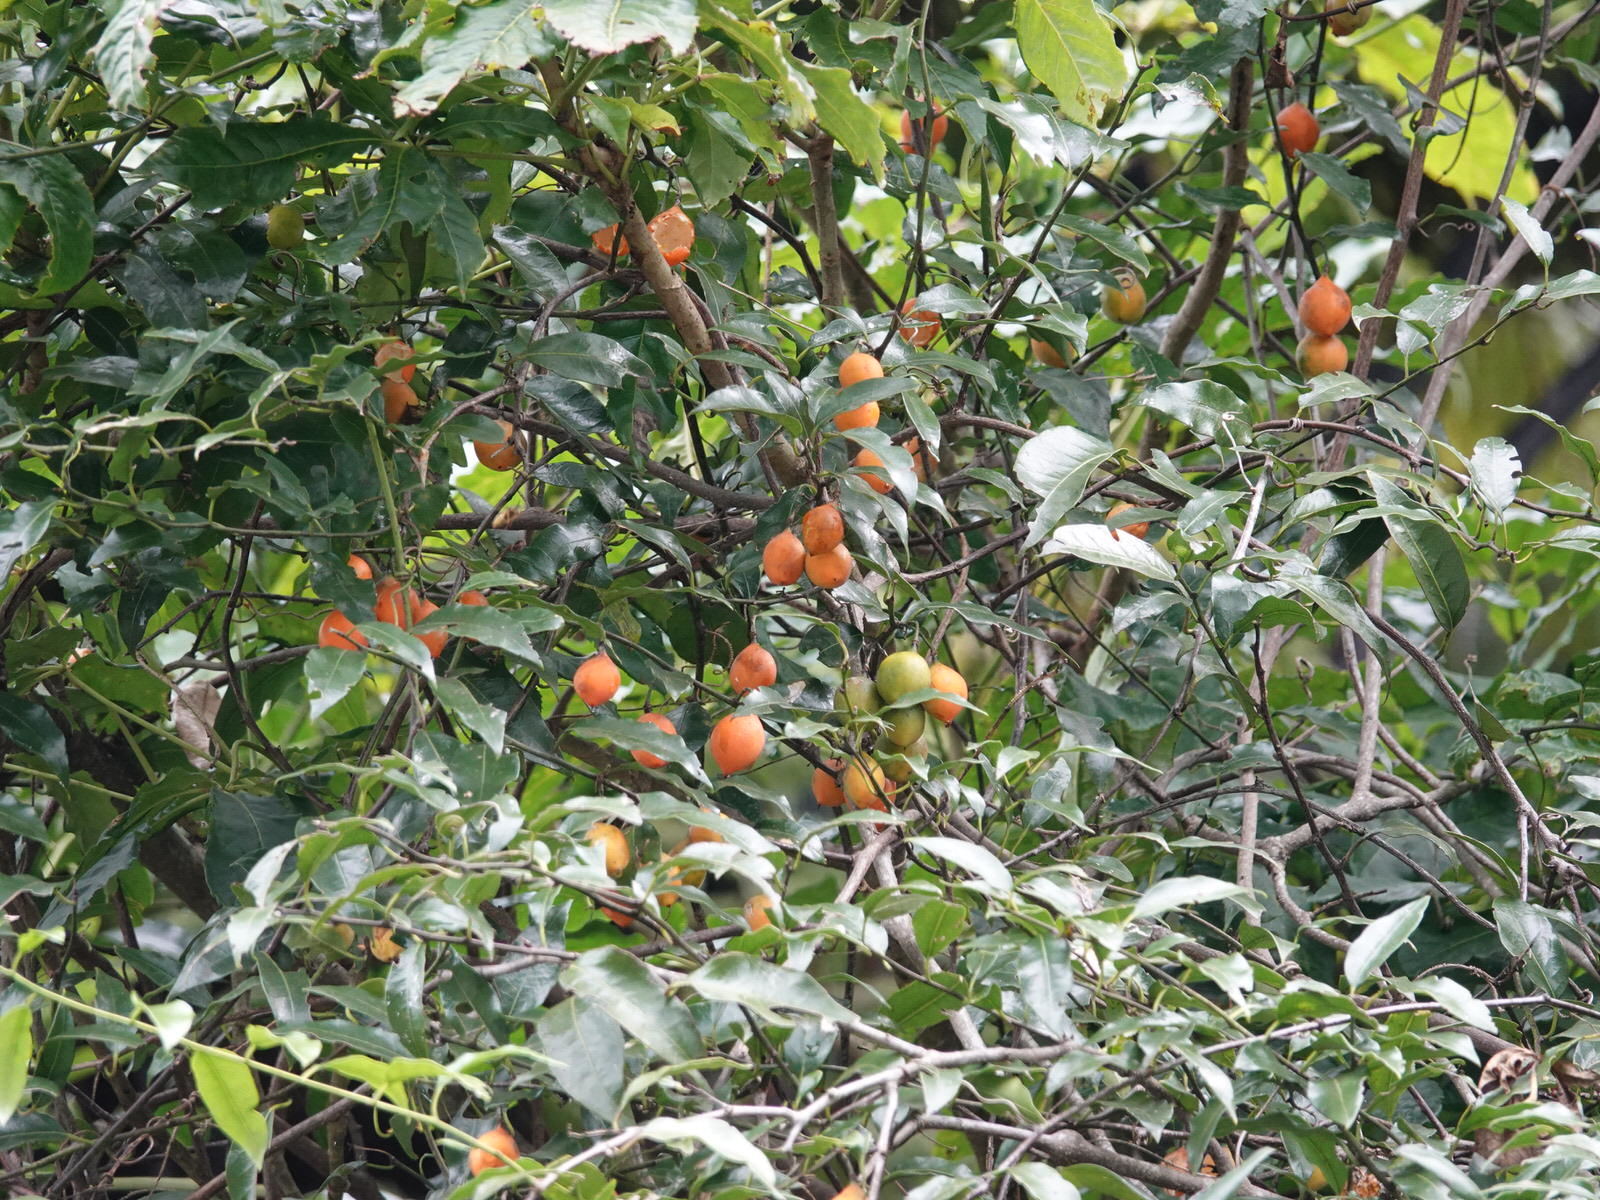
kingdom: Plantae
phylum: Tracheophyta
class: Magnoliopsida
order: Malpighiales
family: Passifloraceae
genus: Passiflora
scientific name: Passiflora tetrandra
